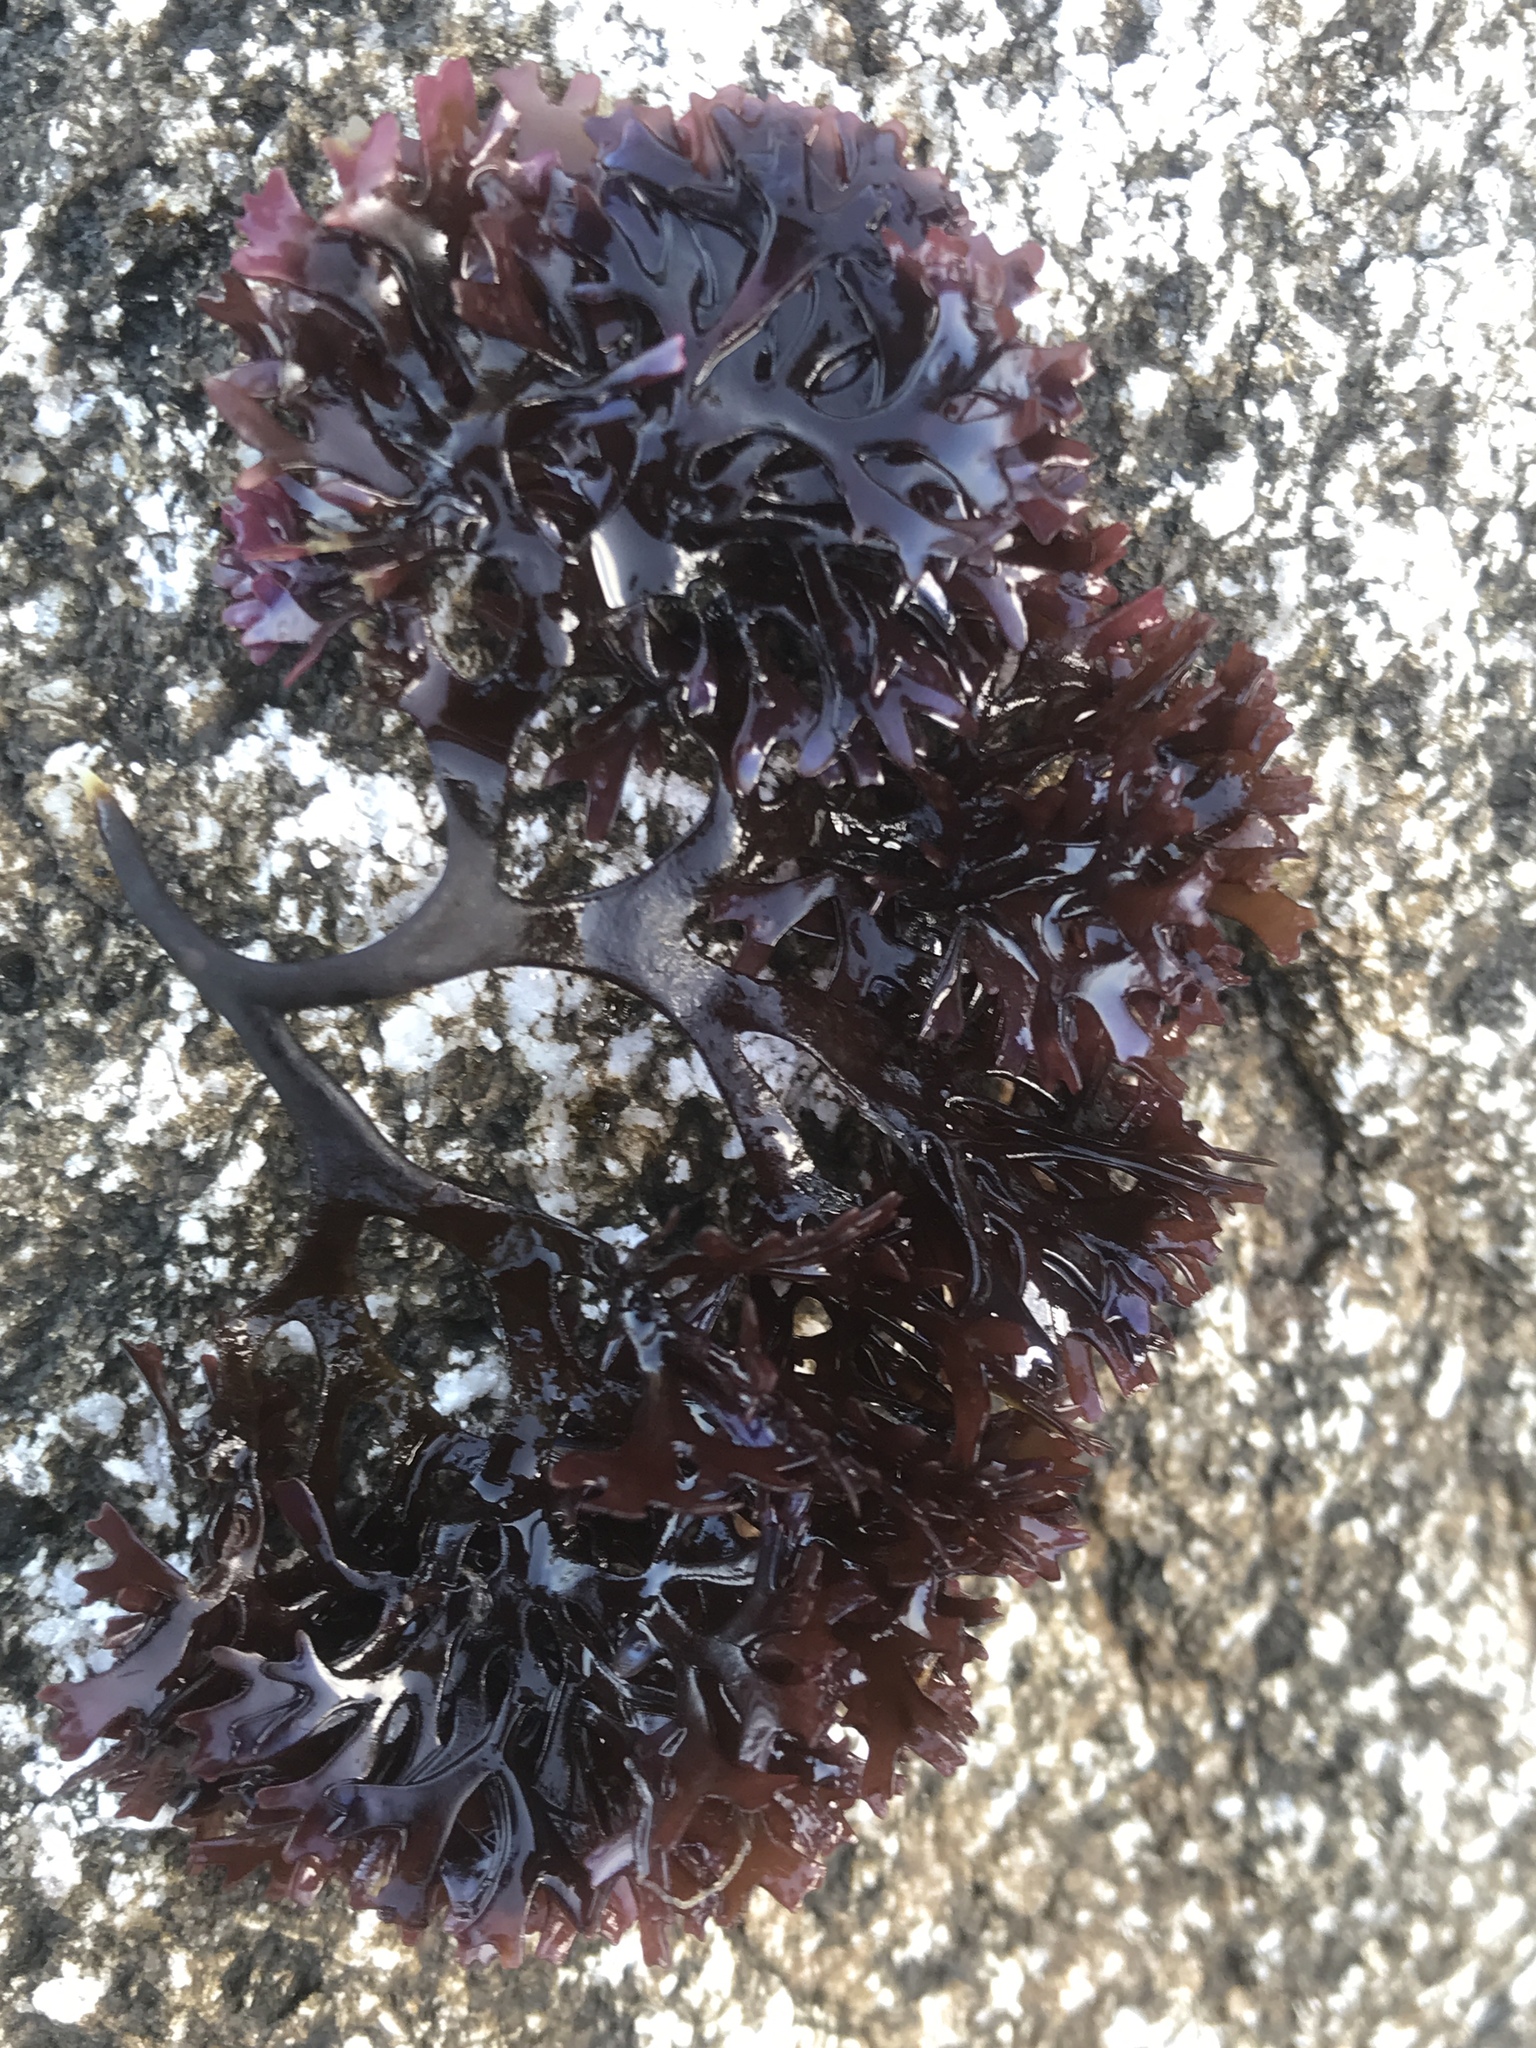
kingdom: Plantae
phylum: Rhodophyta
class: Florideophyceae
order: Gigartinales
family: Gigartinaceae
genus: Chondrus
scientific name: Chondrus crispus
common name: Carrageen
